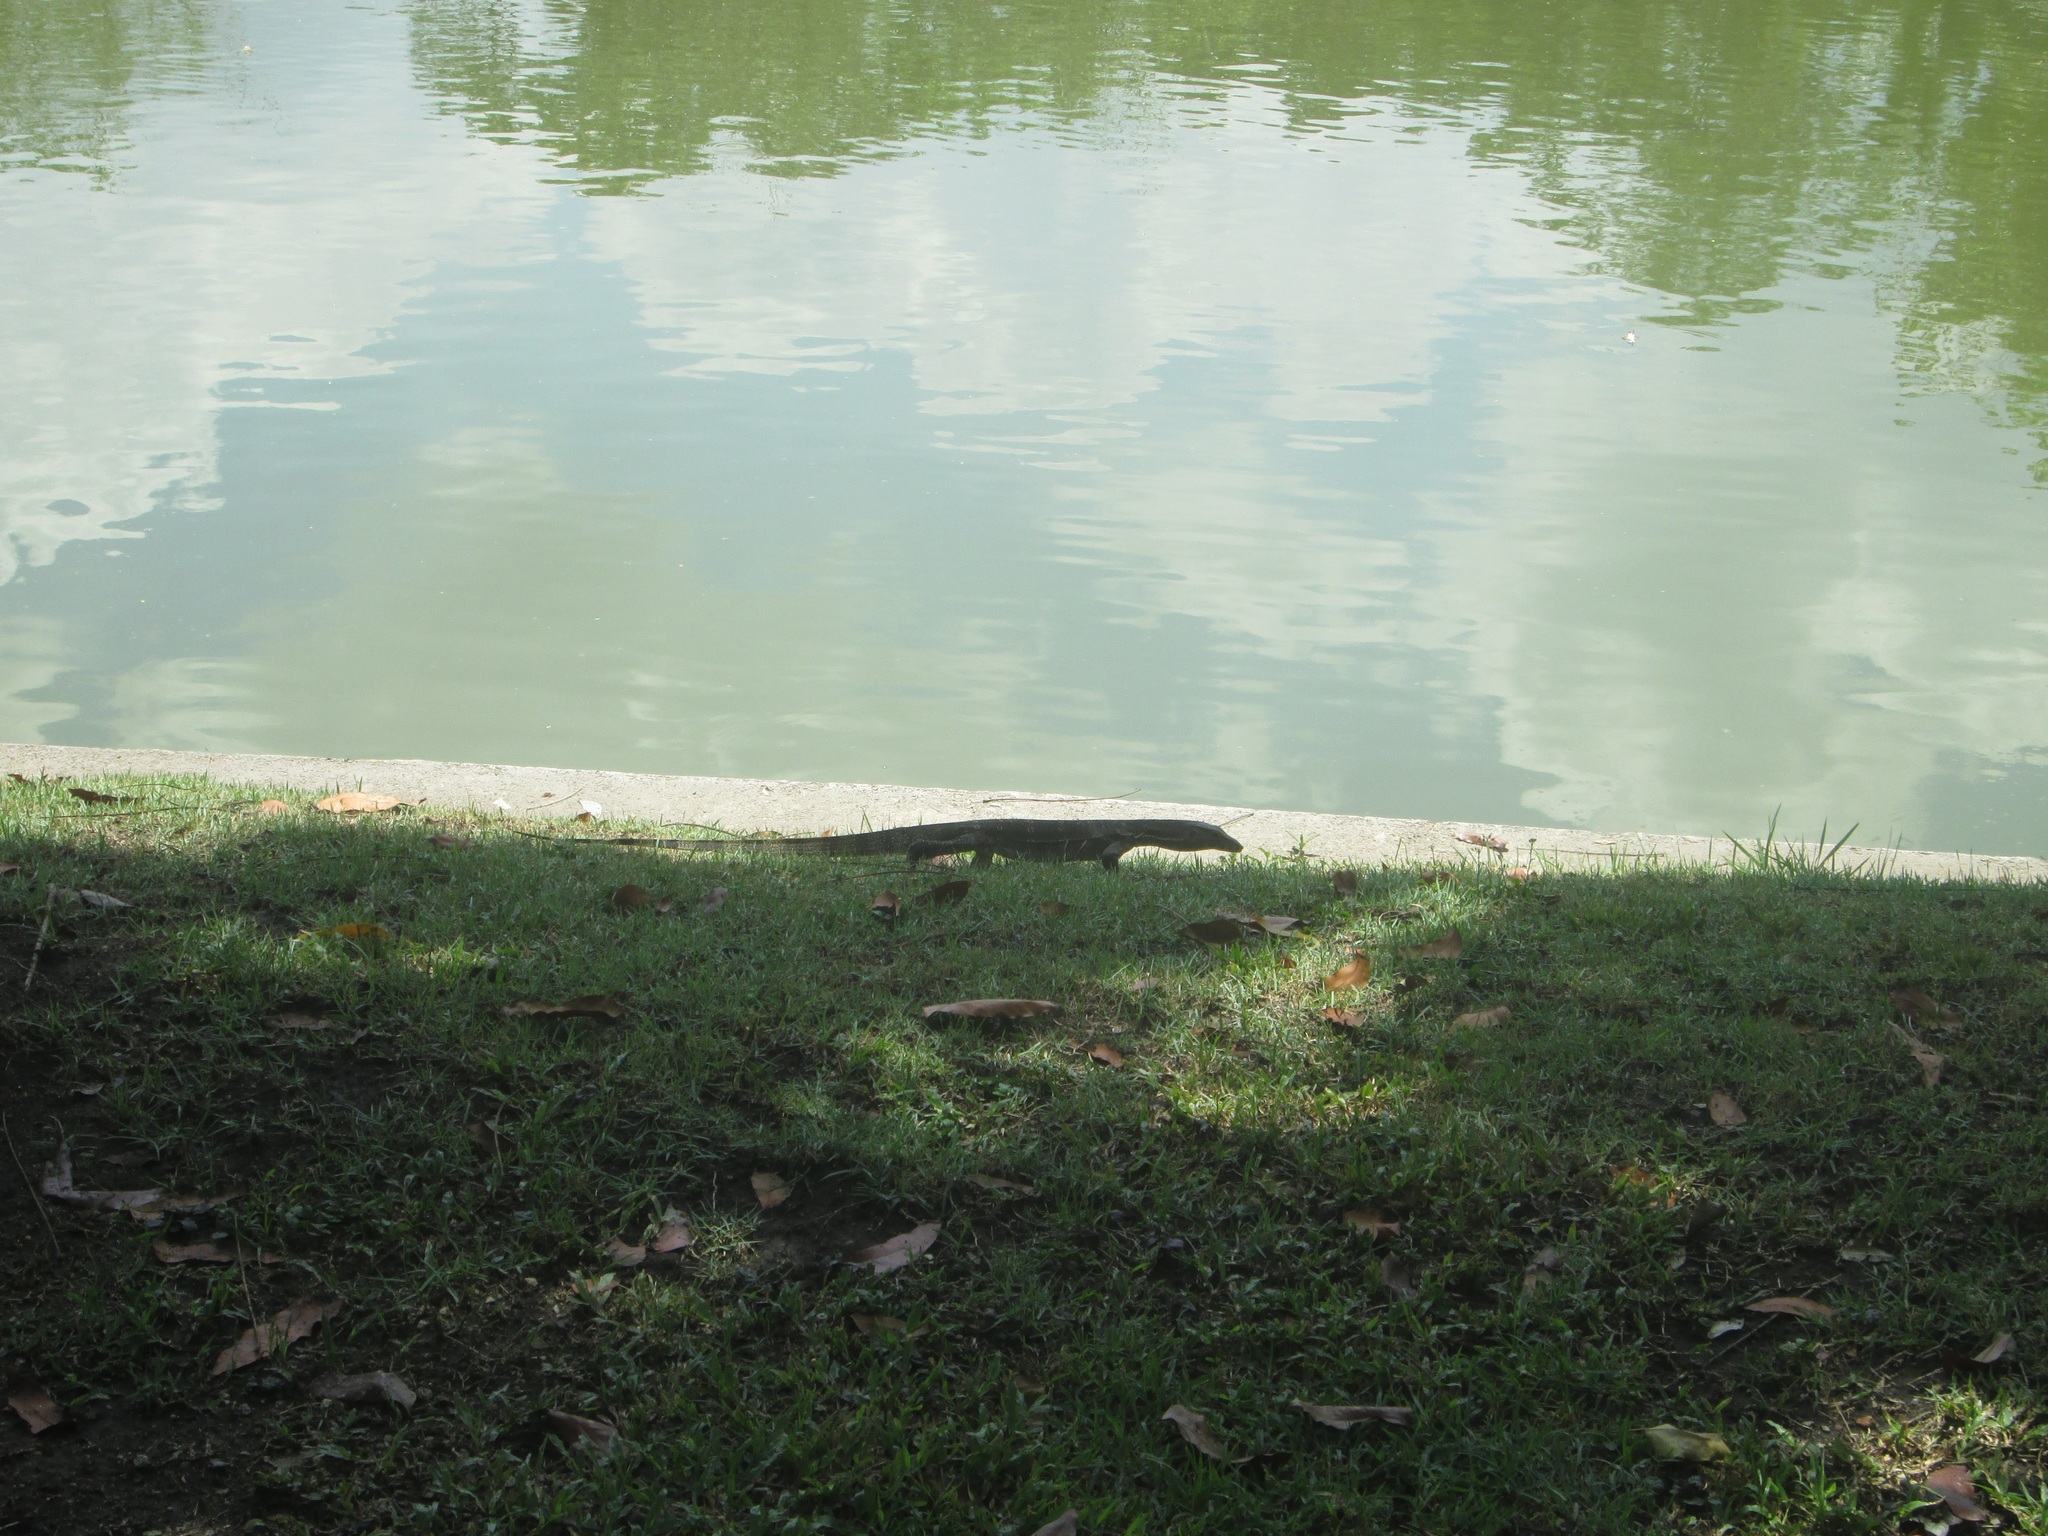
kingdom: Animalia
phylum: Chordata
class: Squamata
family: Varanidae
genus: Varanus
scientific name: Varanus salvator
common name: Common water monitor
